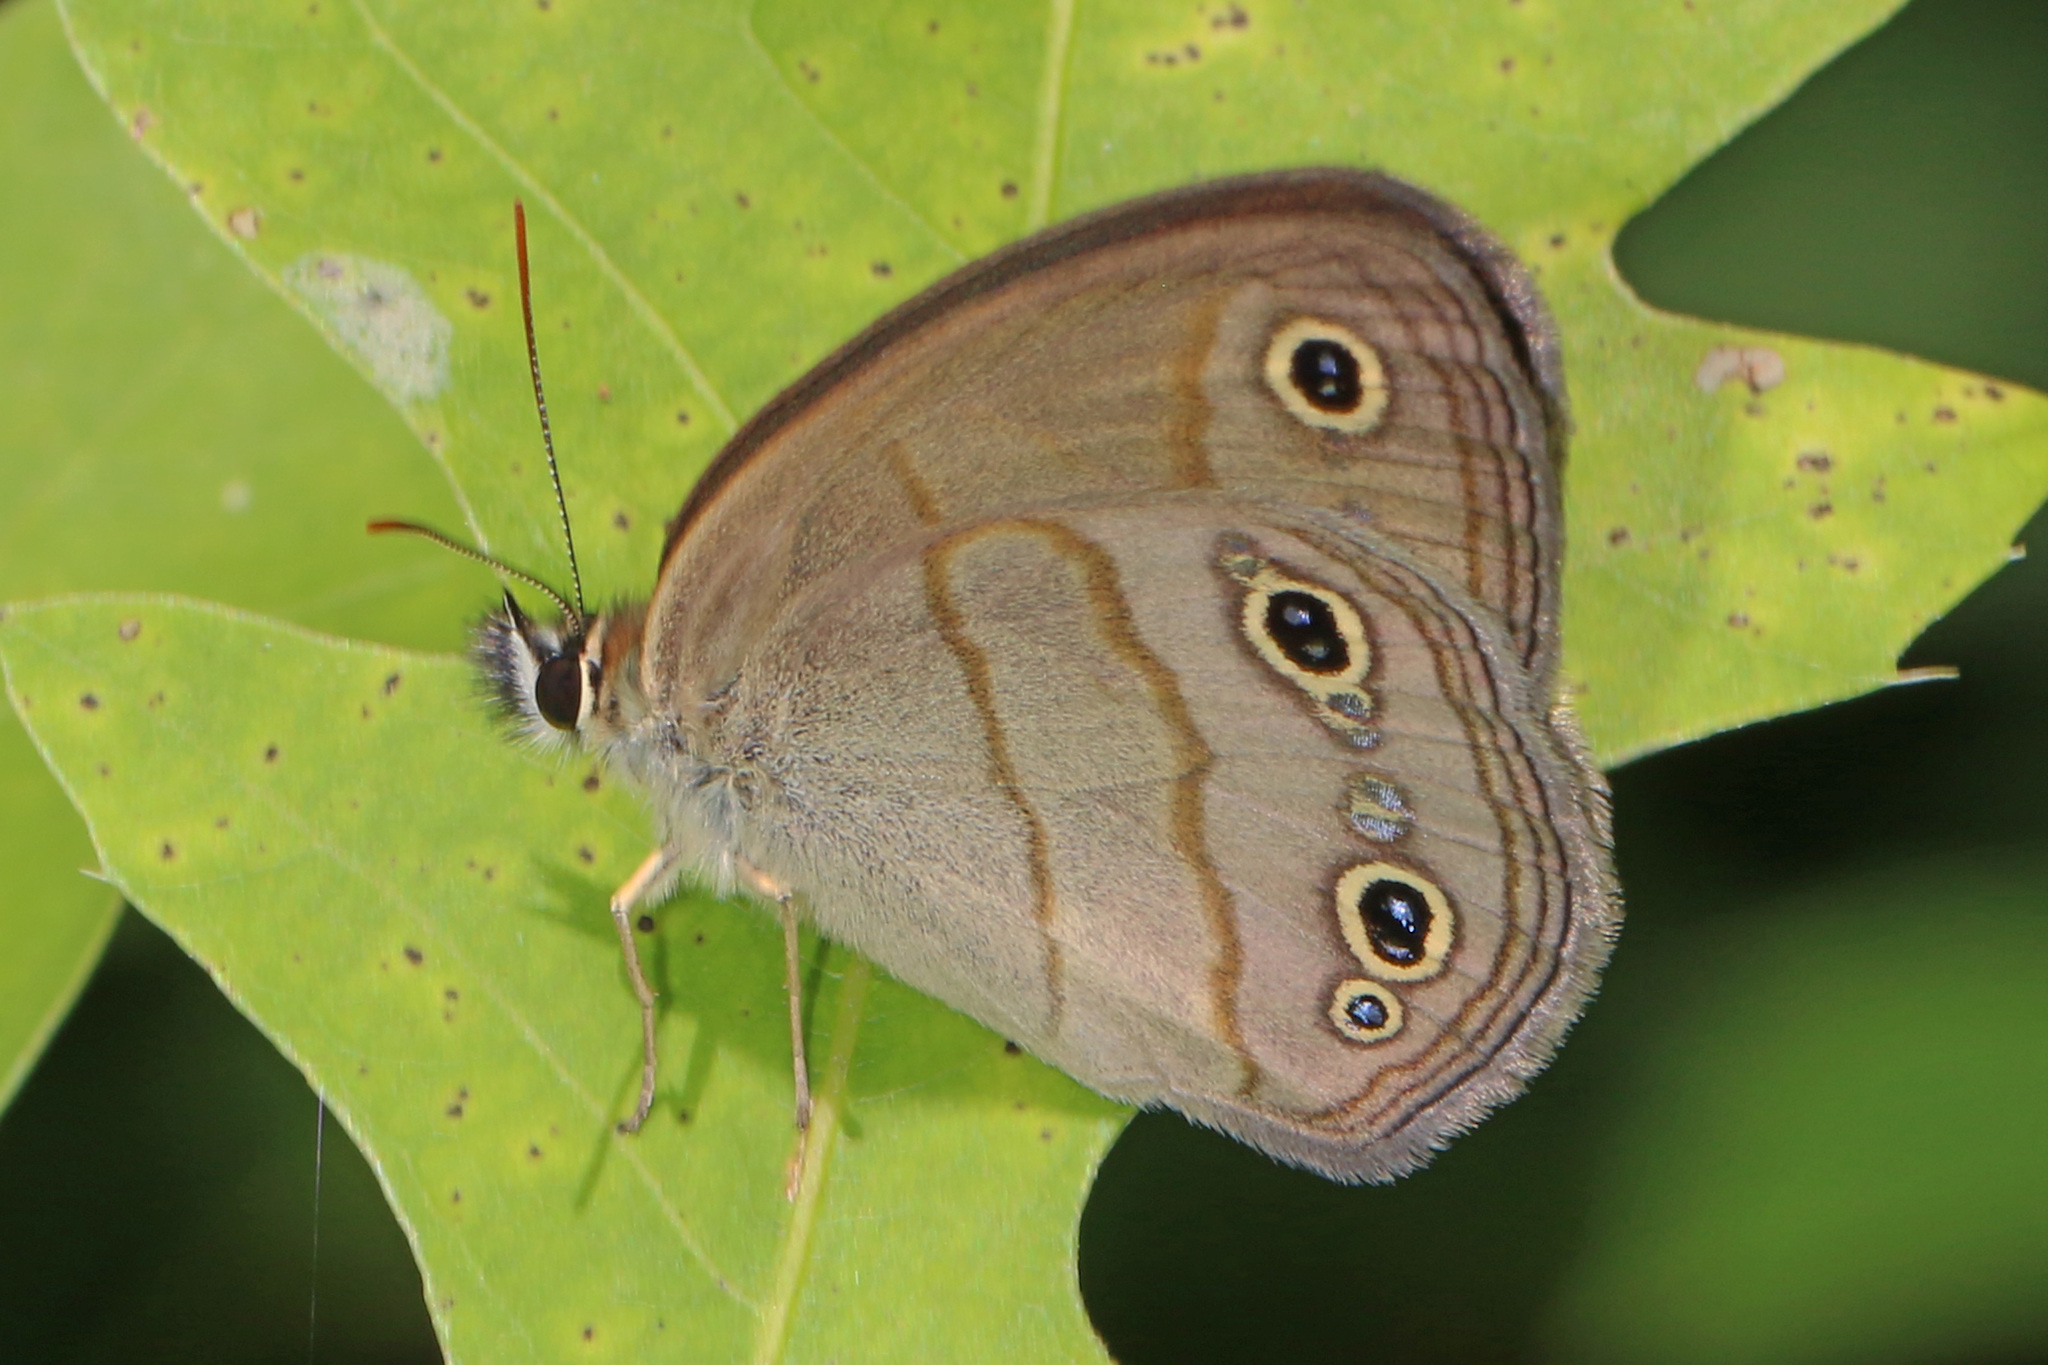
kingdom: Animalia
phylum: Arthropoda
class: Insecta
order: Lepidoptera
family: Nymphalidae
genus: Euptychia
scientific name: Euptychia cymela
